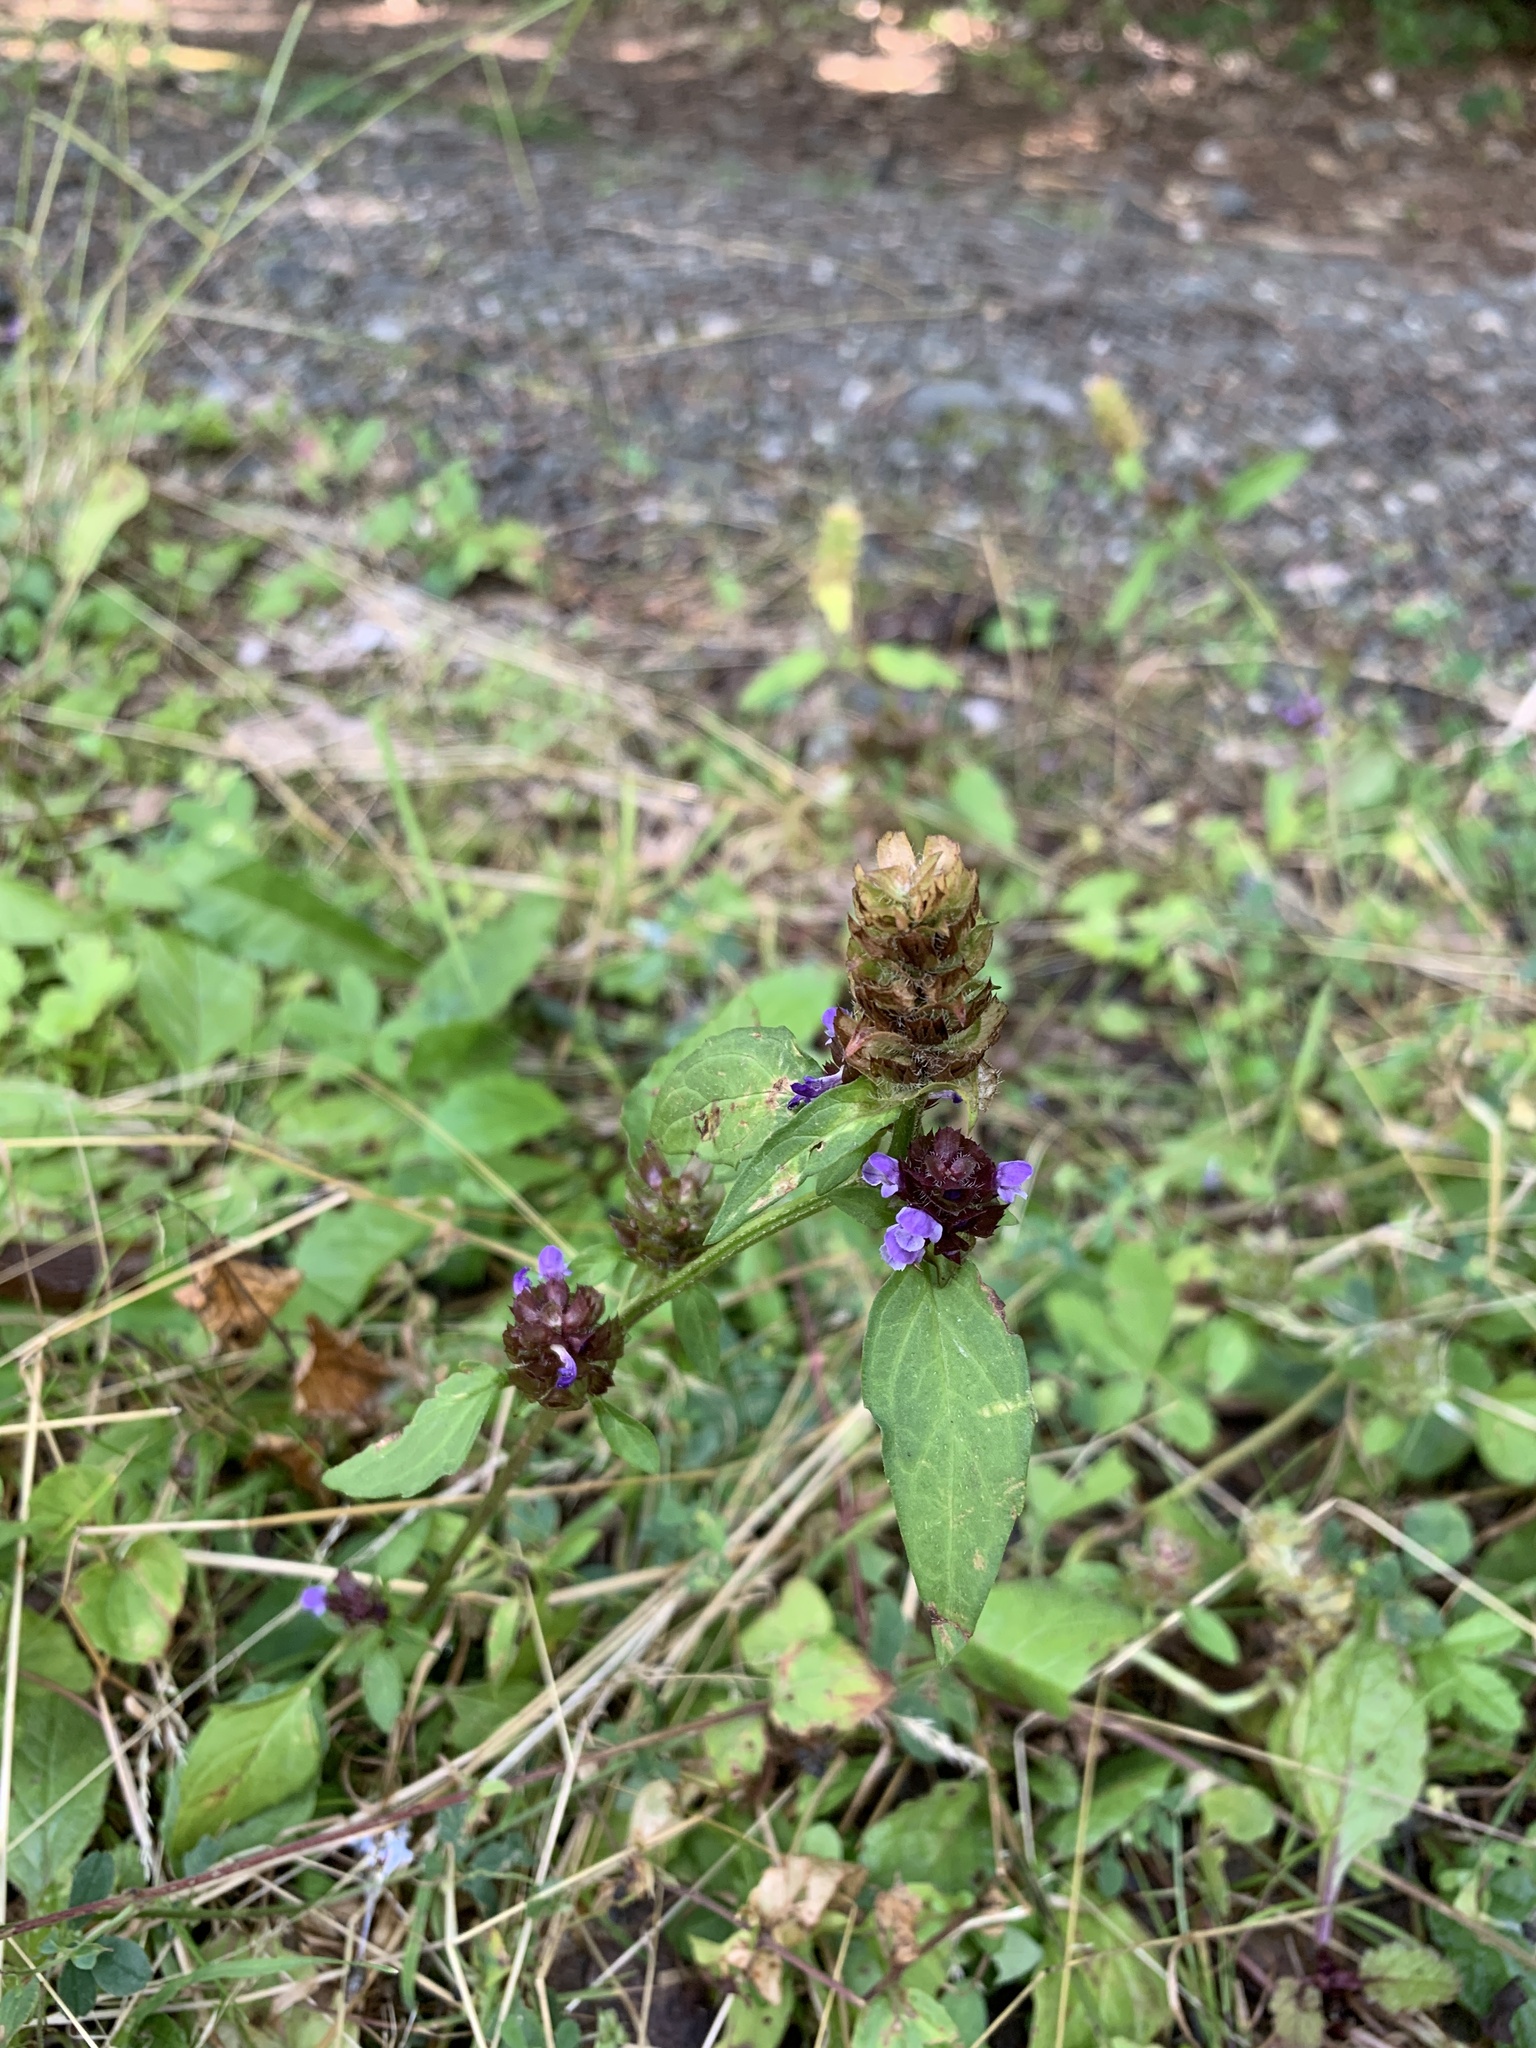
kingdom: Plantae
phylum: Tracheophyta
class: Magnoliopsida
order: Lamiales
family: Lamiaceae
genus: Prunella
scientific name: Prunella vulgaris
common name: Heal-all
